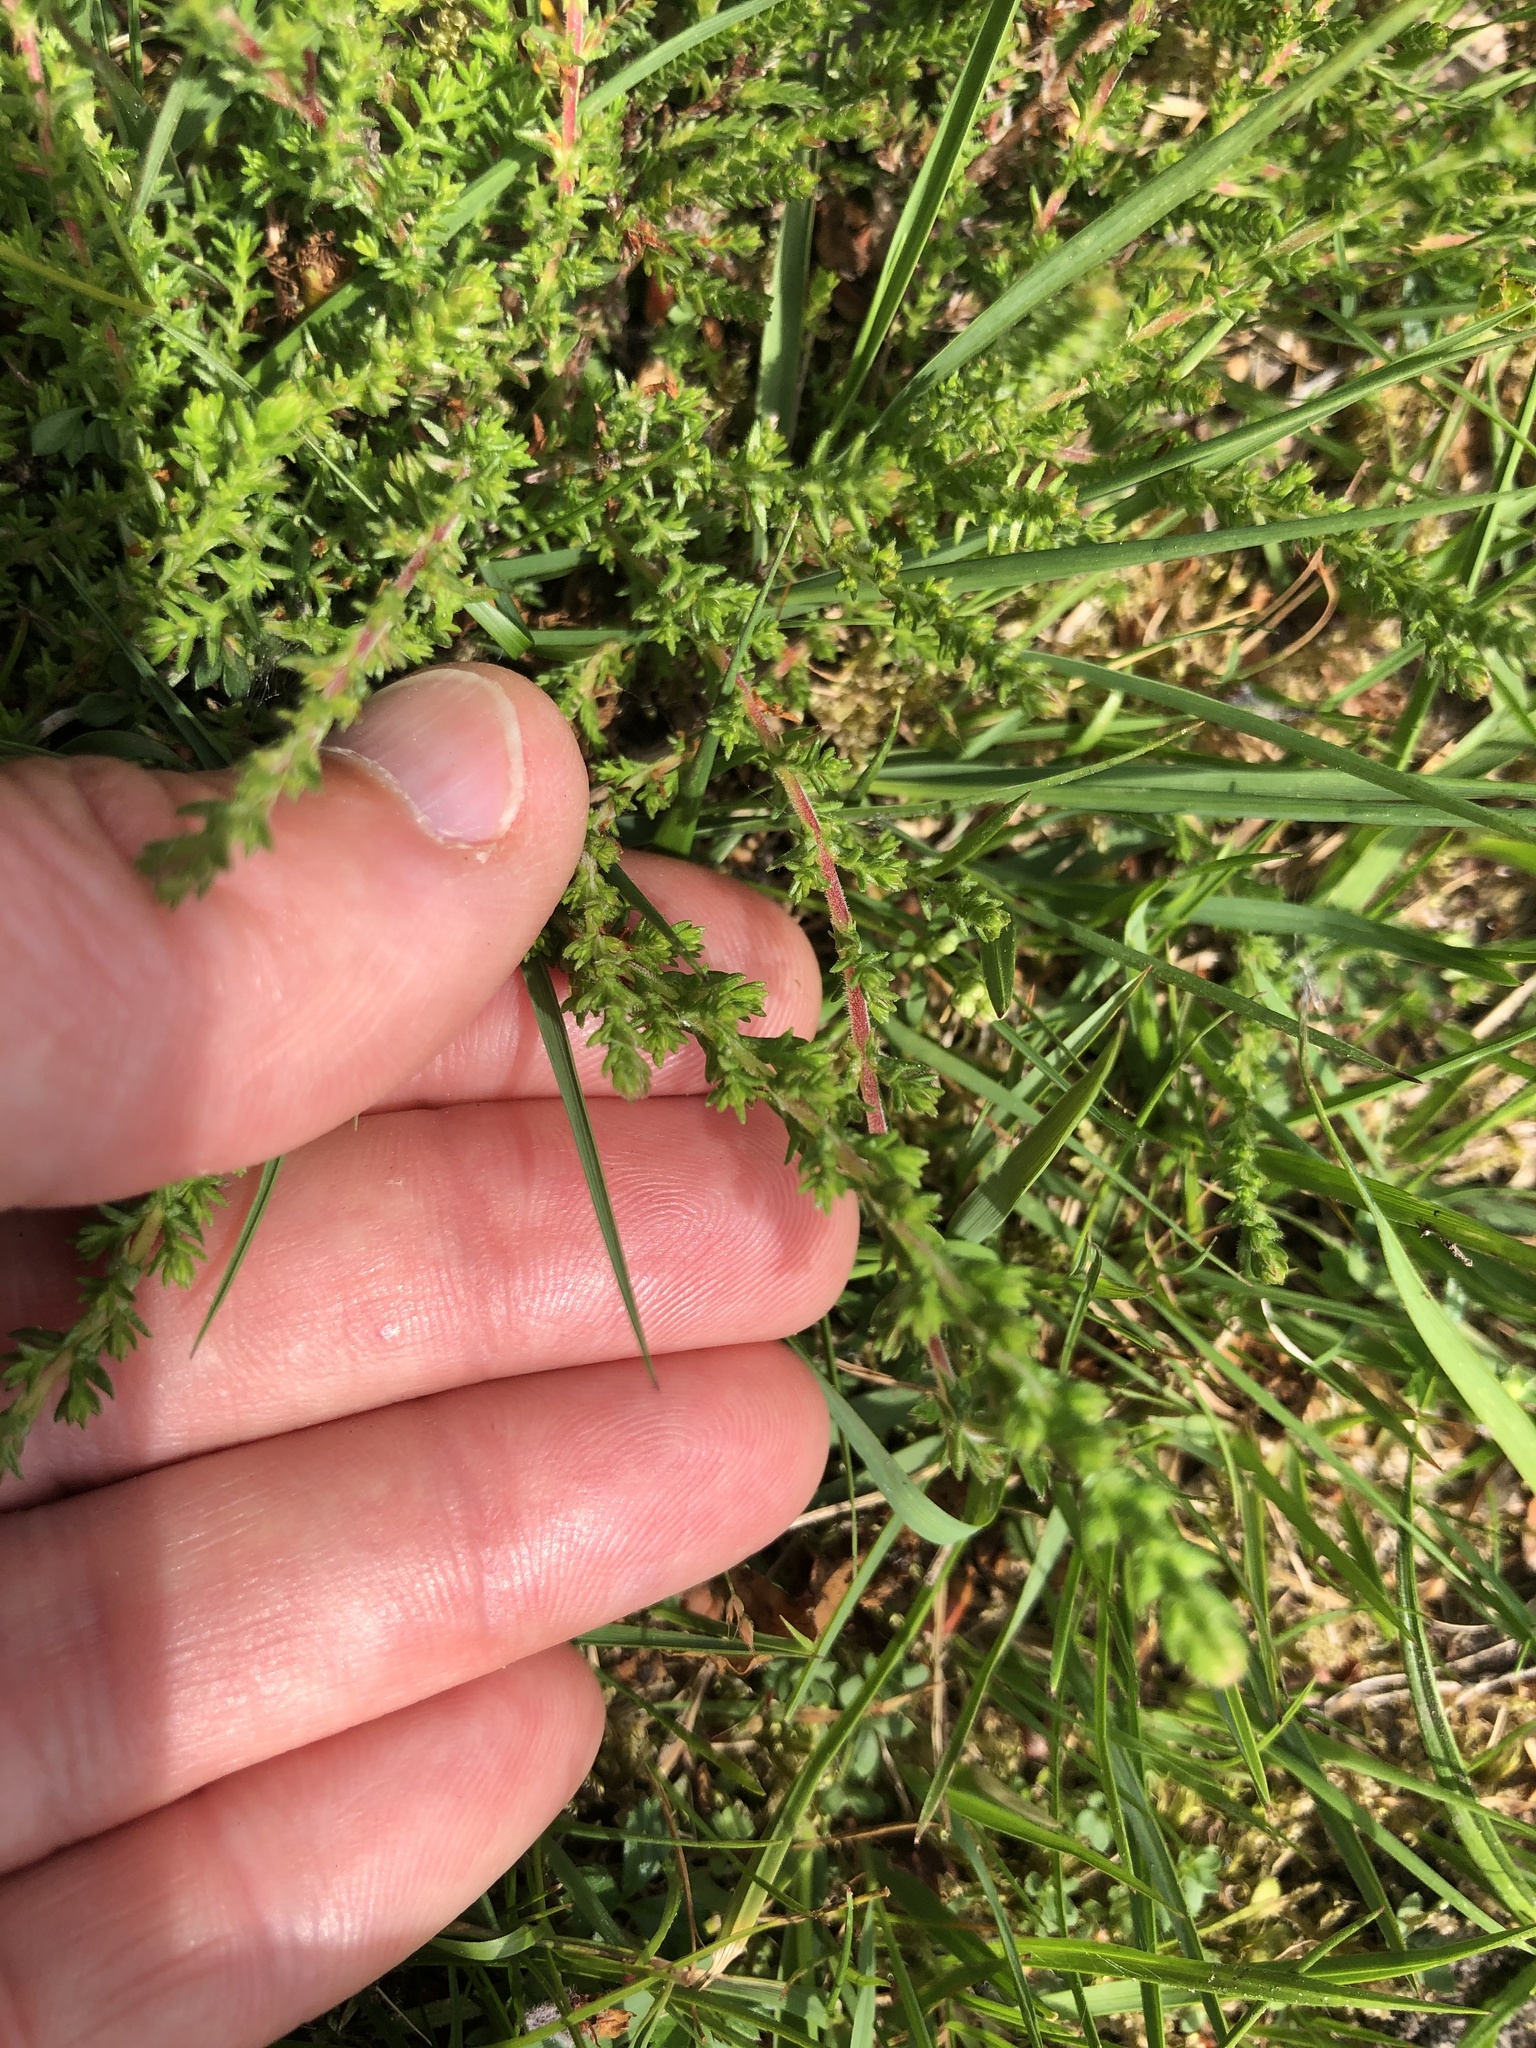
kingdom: Plantae
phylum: Tracheophyta
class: Magnoliopsida
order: Ericales
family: Ericaceae
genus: Calluna
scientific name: Calluna vulgaris
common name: Heather
